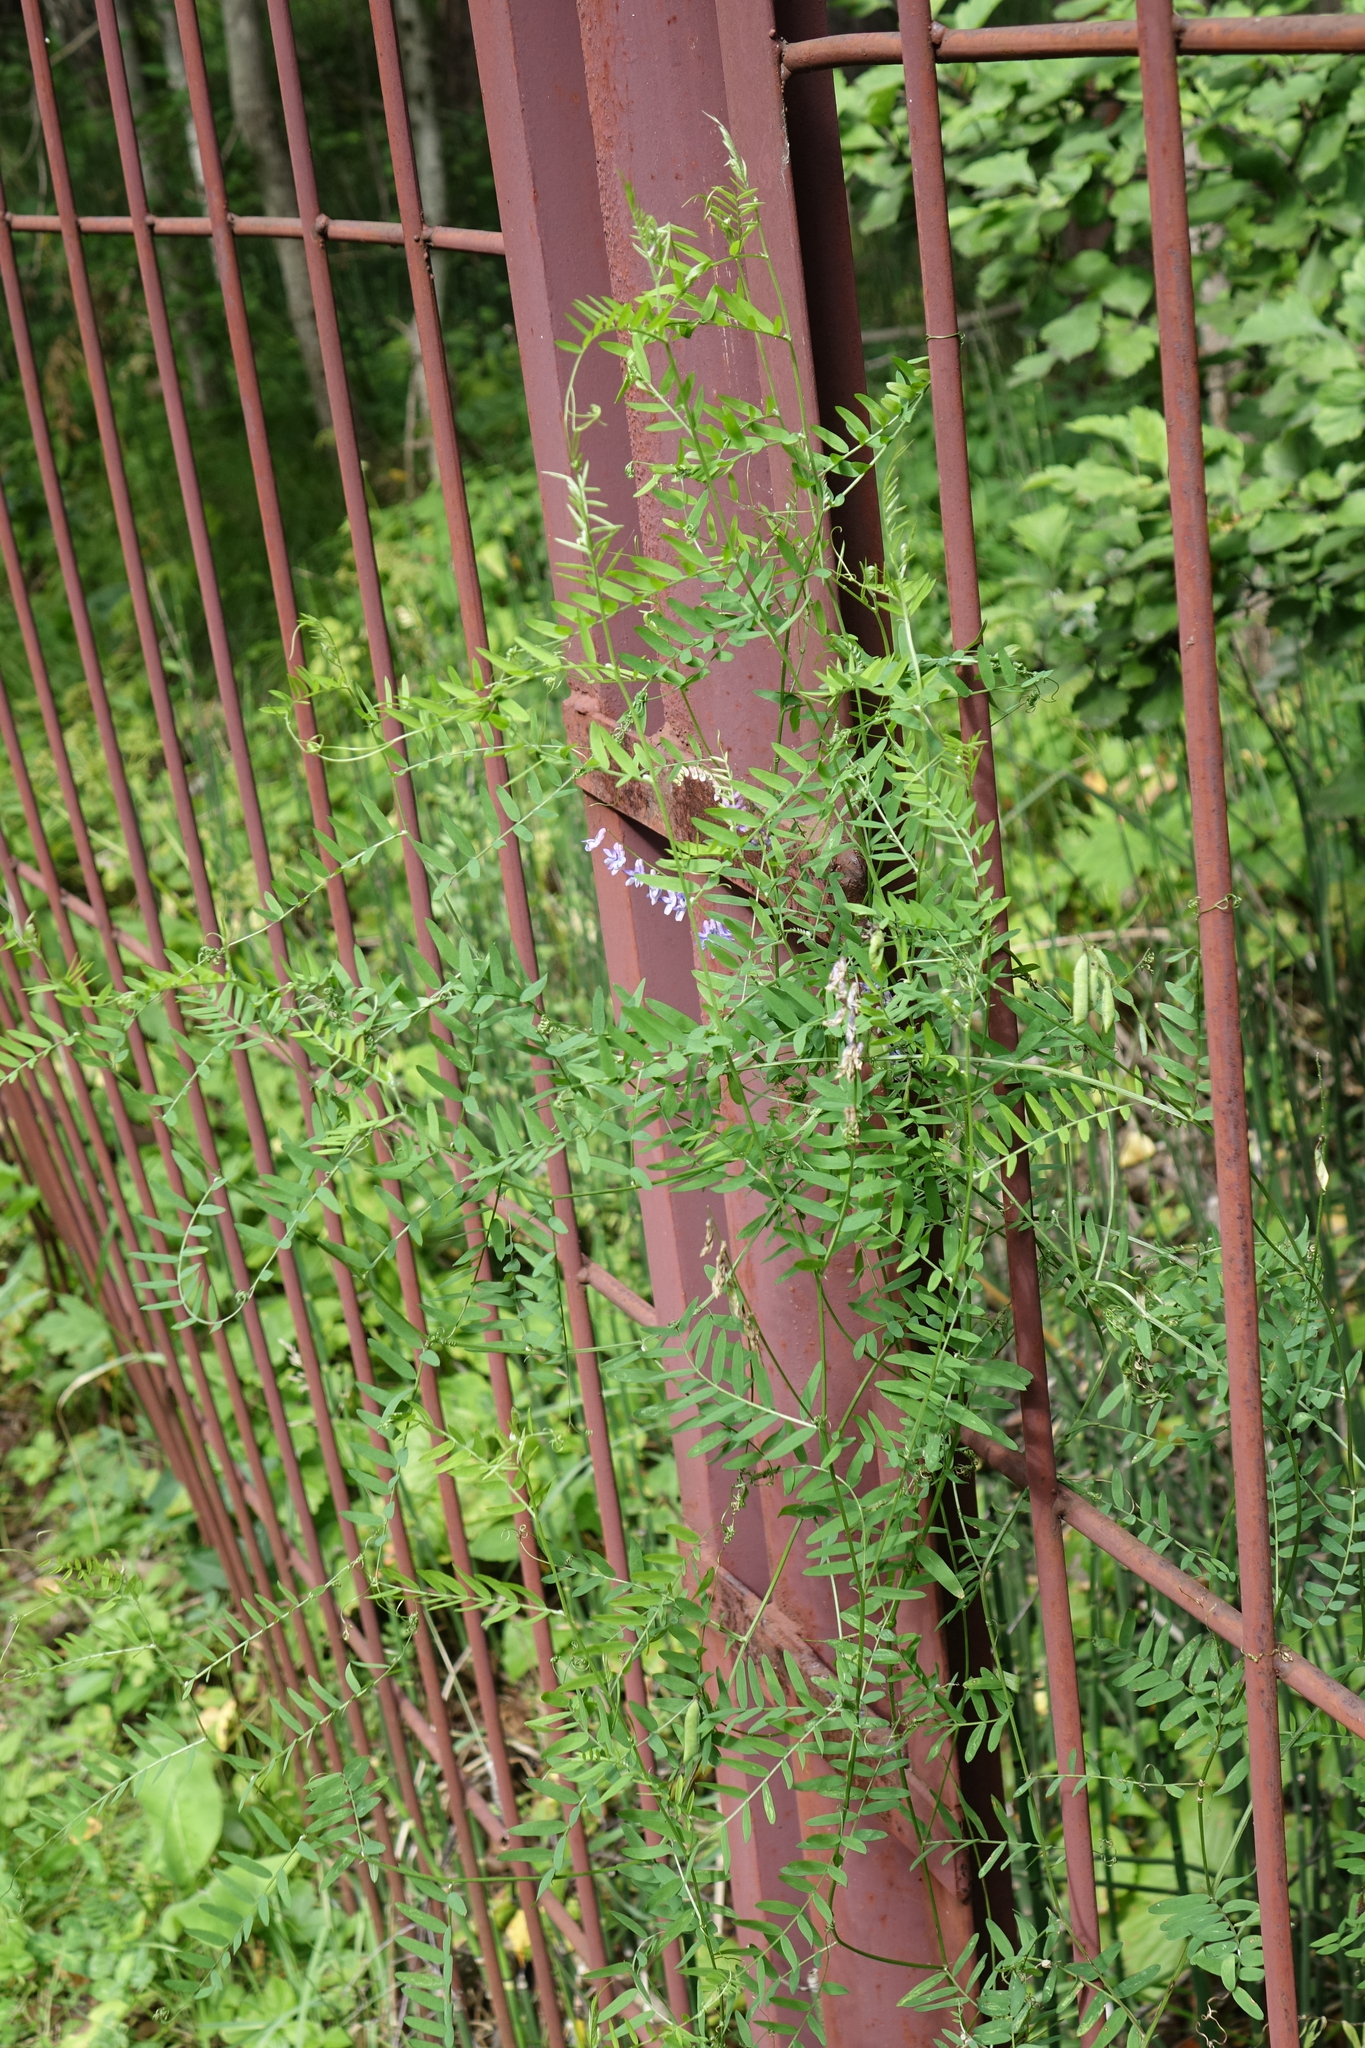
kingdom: Plantae
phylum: Tracheophyta
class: Magnoliopsida
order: Fabales
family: Fabaceae
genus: Vicia
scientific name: Vicia cracca
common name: Bird vetch
